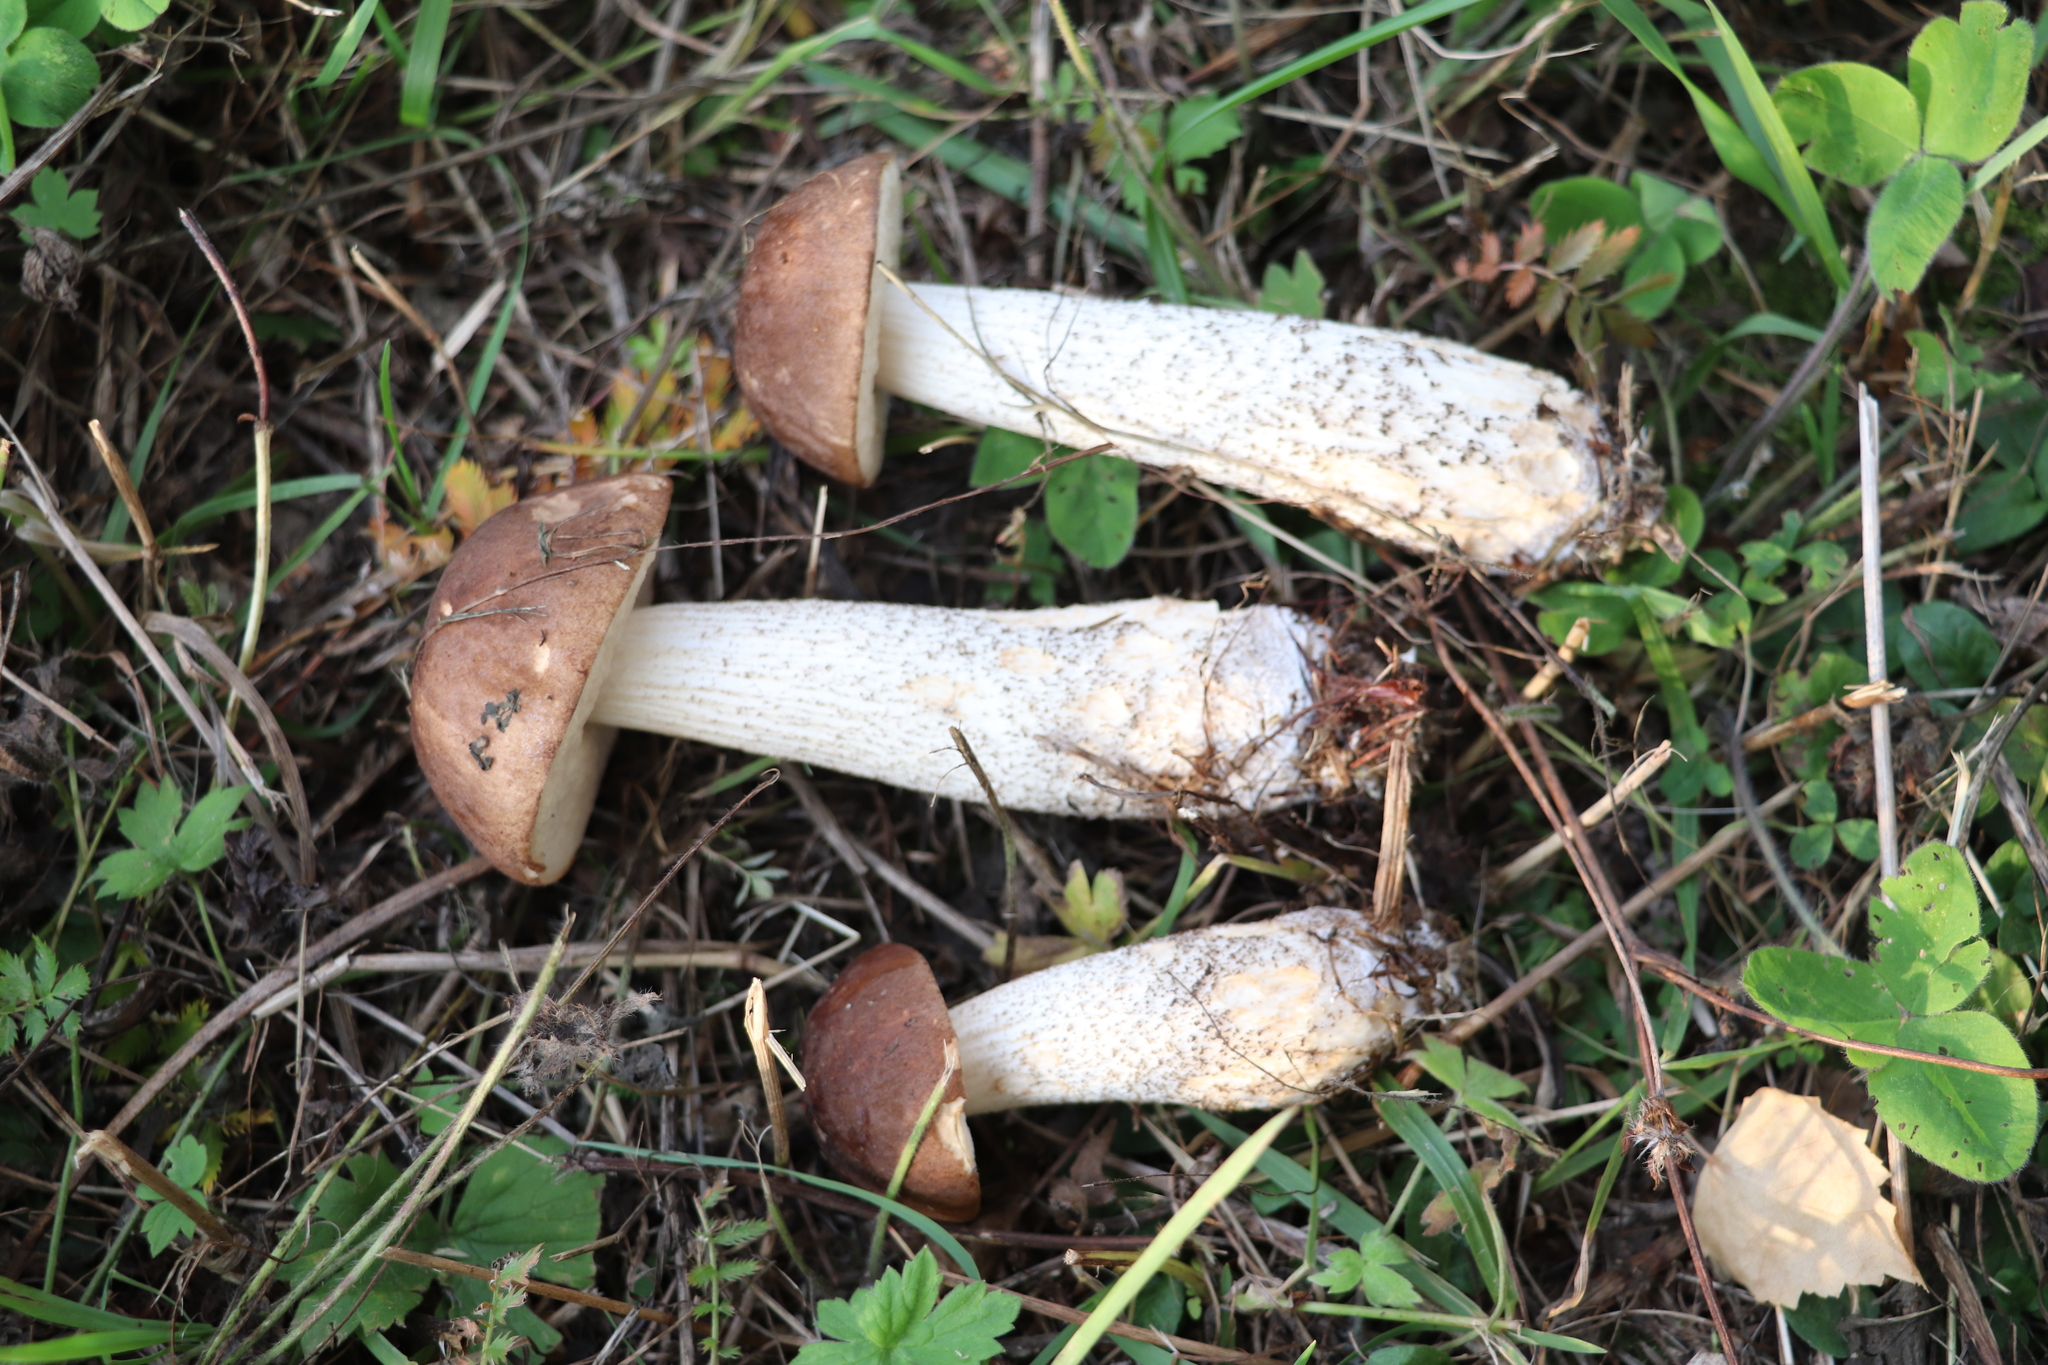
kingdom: Fungi
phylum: Basidiomycota
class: Agaricomycetes
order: Boletales
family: Boletaceae
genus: Leccinum
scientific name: Leccinum scabrum
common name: Blushing bolete
